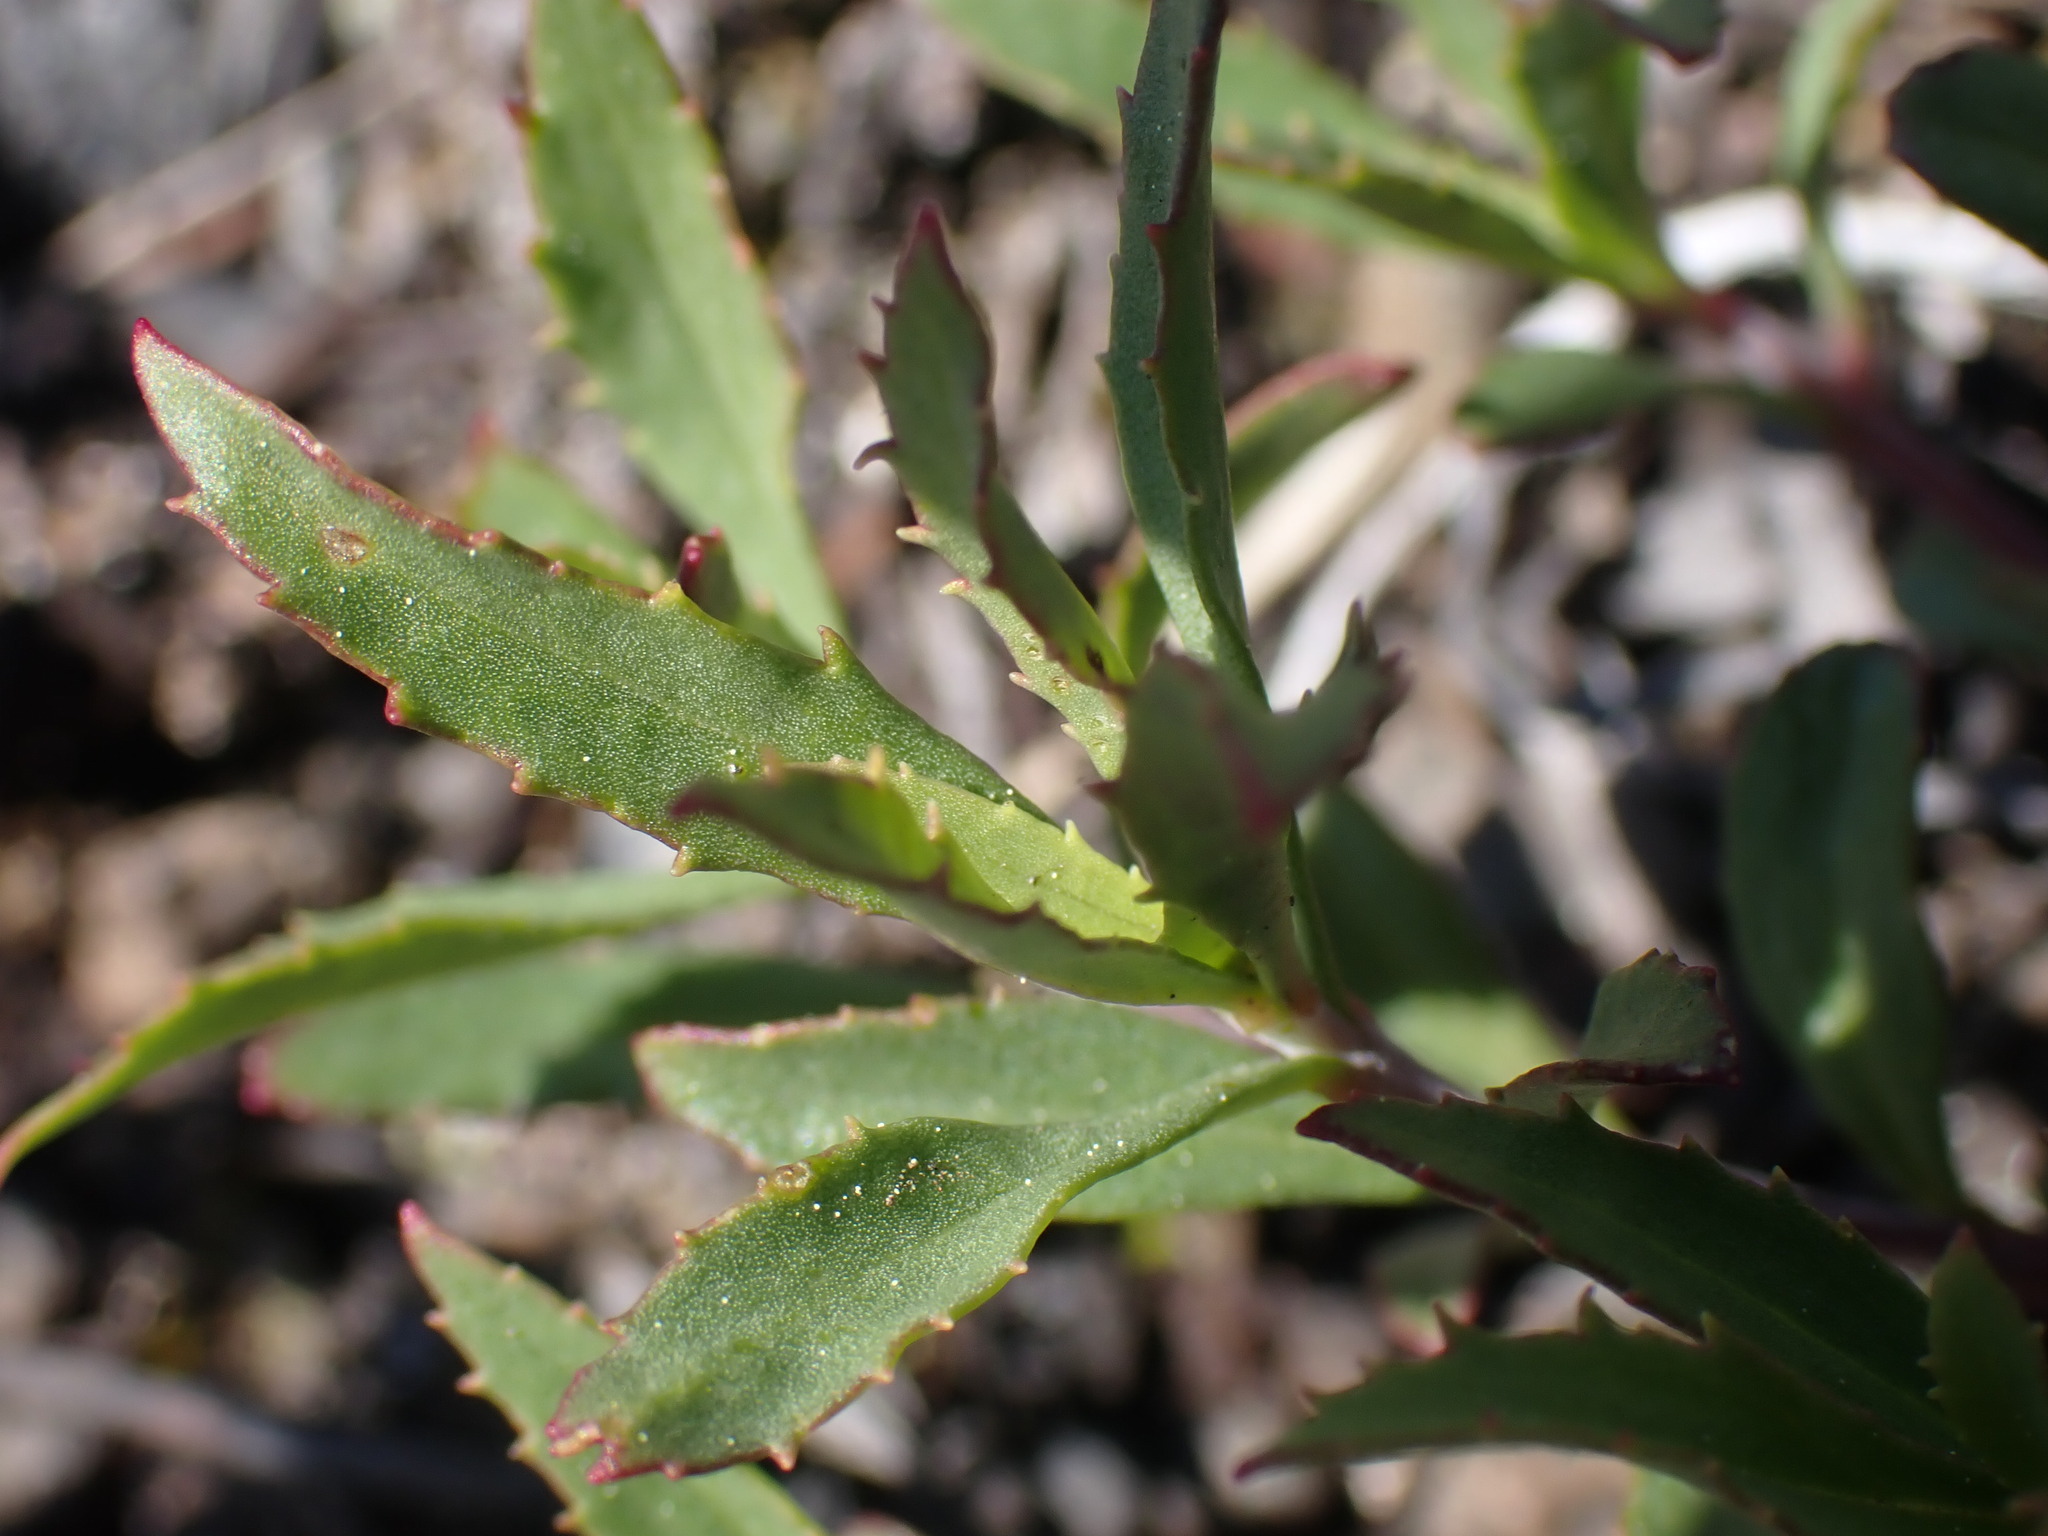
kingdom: Plantae
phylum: Tracheophyta
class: Magnoliopsida
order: Lamiales
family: Plantaginaceae
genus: Penstemon
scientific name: Penstemon fruticosus
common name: Bush penstemon
